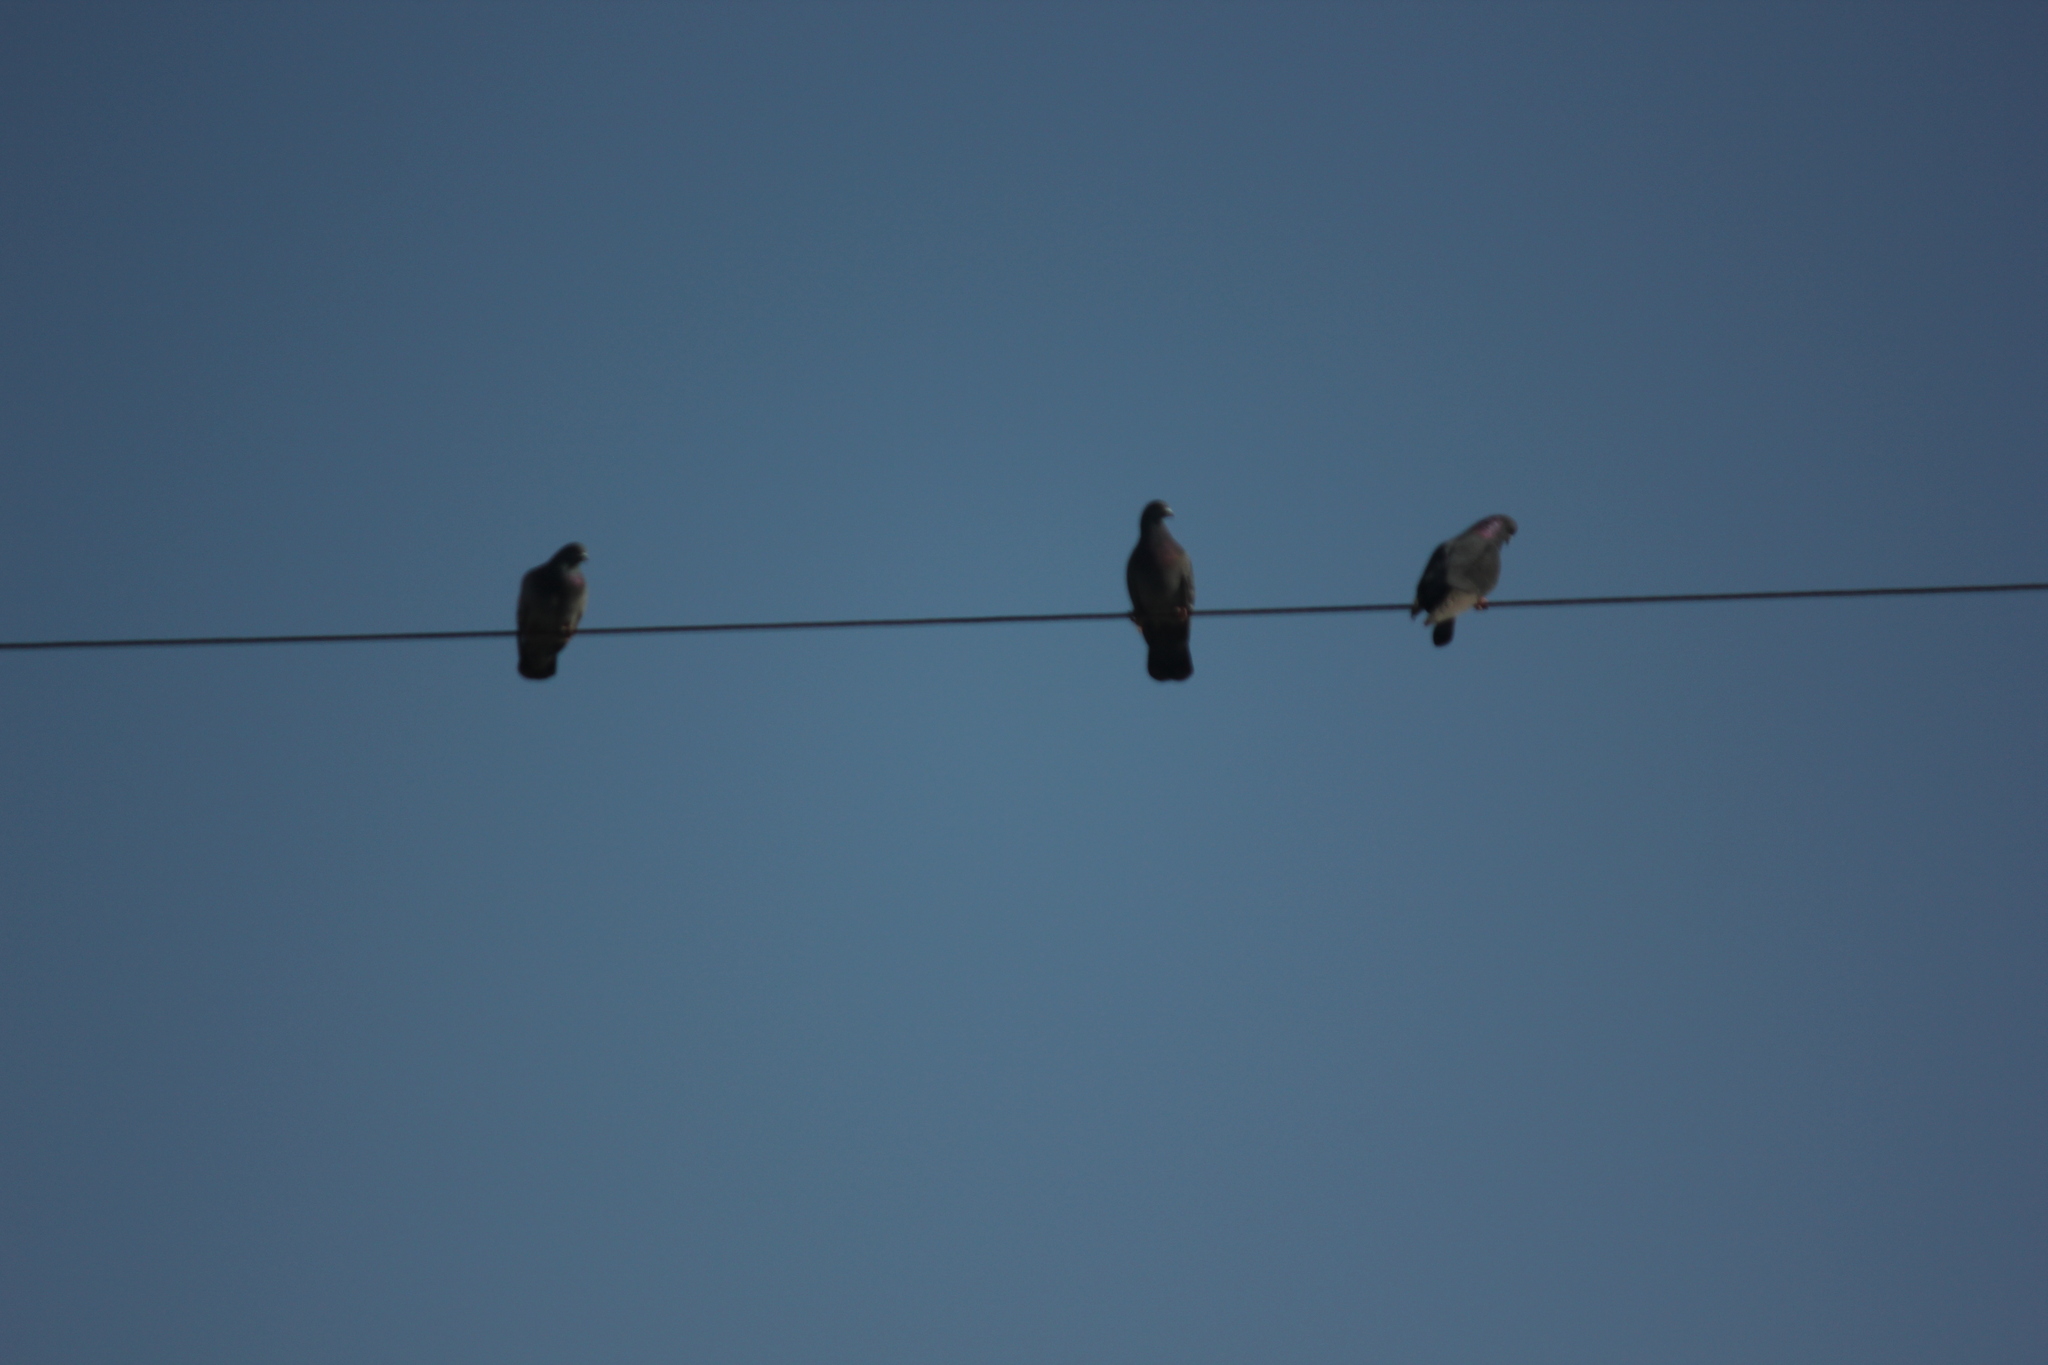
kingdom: Animalia
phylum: Chordata
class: Aves
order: Columbiformes
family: Columbidae
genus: Columba
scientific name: Columba livia
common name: Rock pigeon
